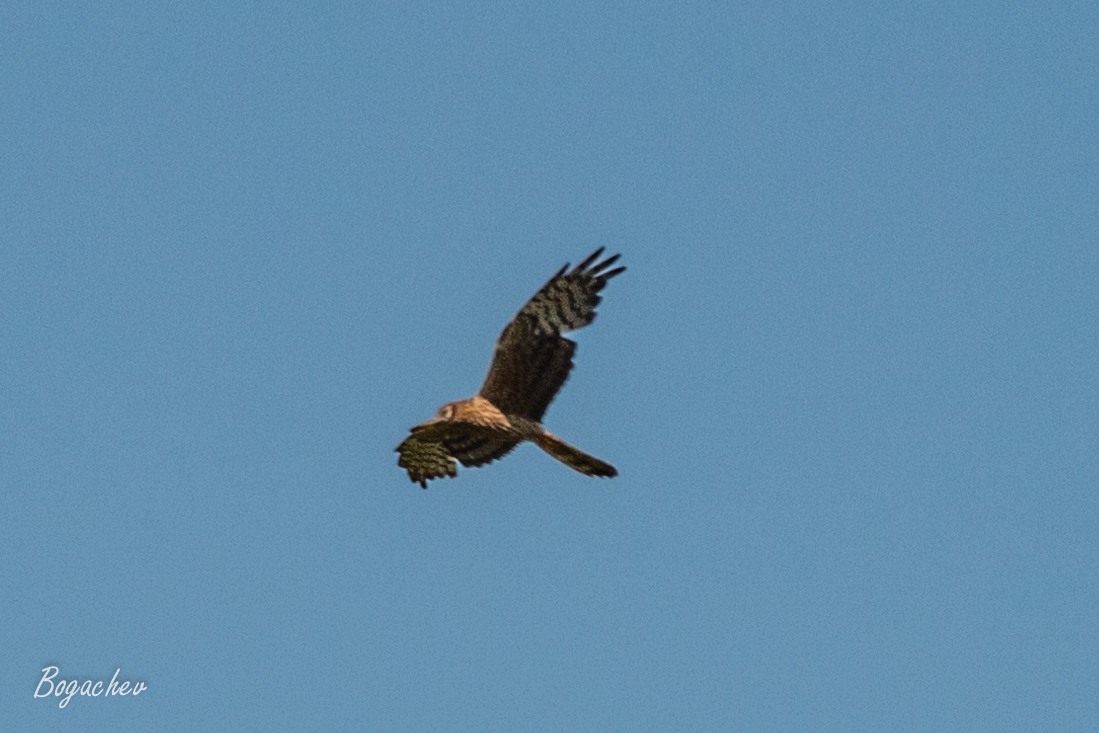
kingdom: Animalia
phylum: Chordata
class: Aves
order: Accipitriformes
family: Accipitridae
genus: Circus
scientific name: Circus pygargus
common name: Montagu's harrier
